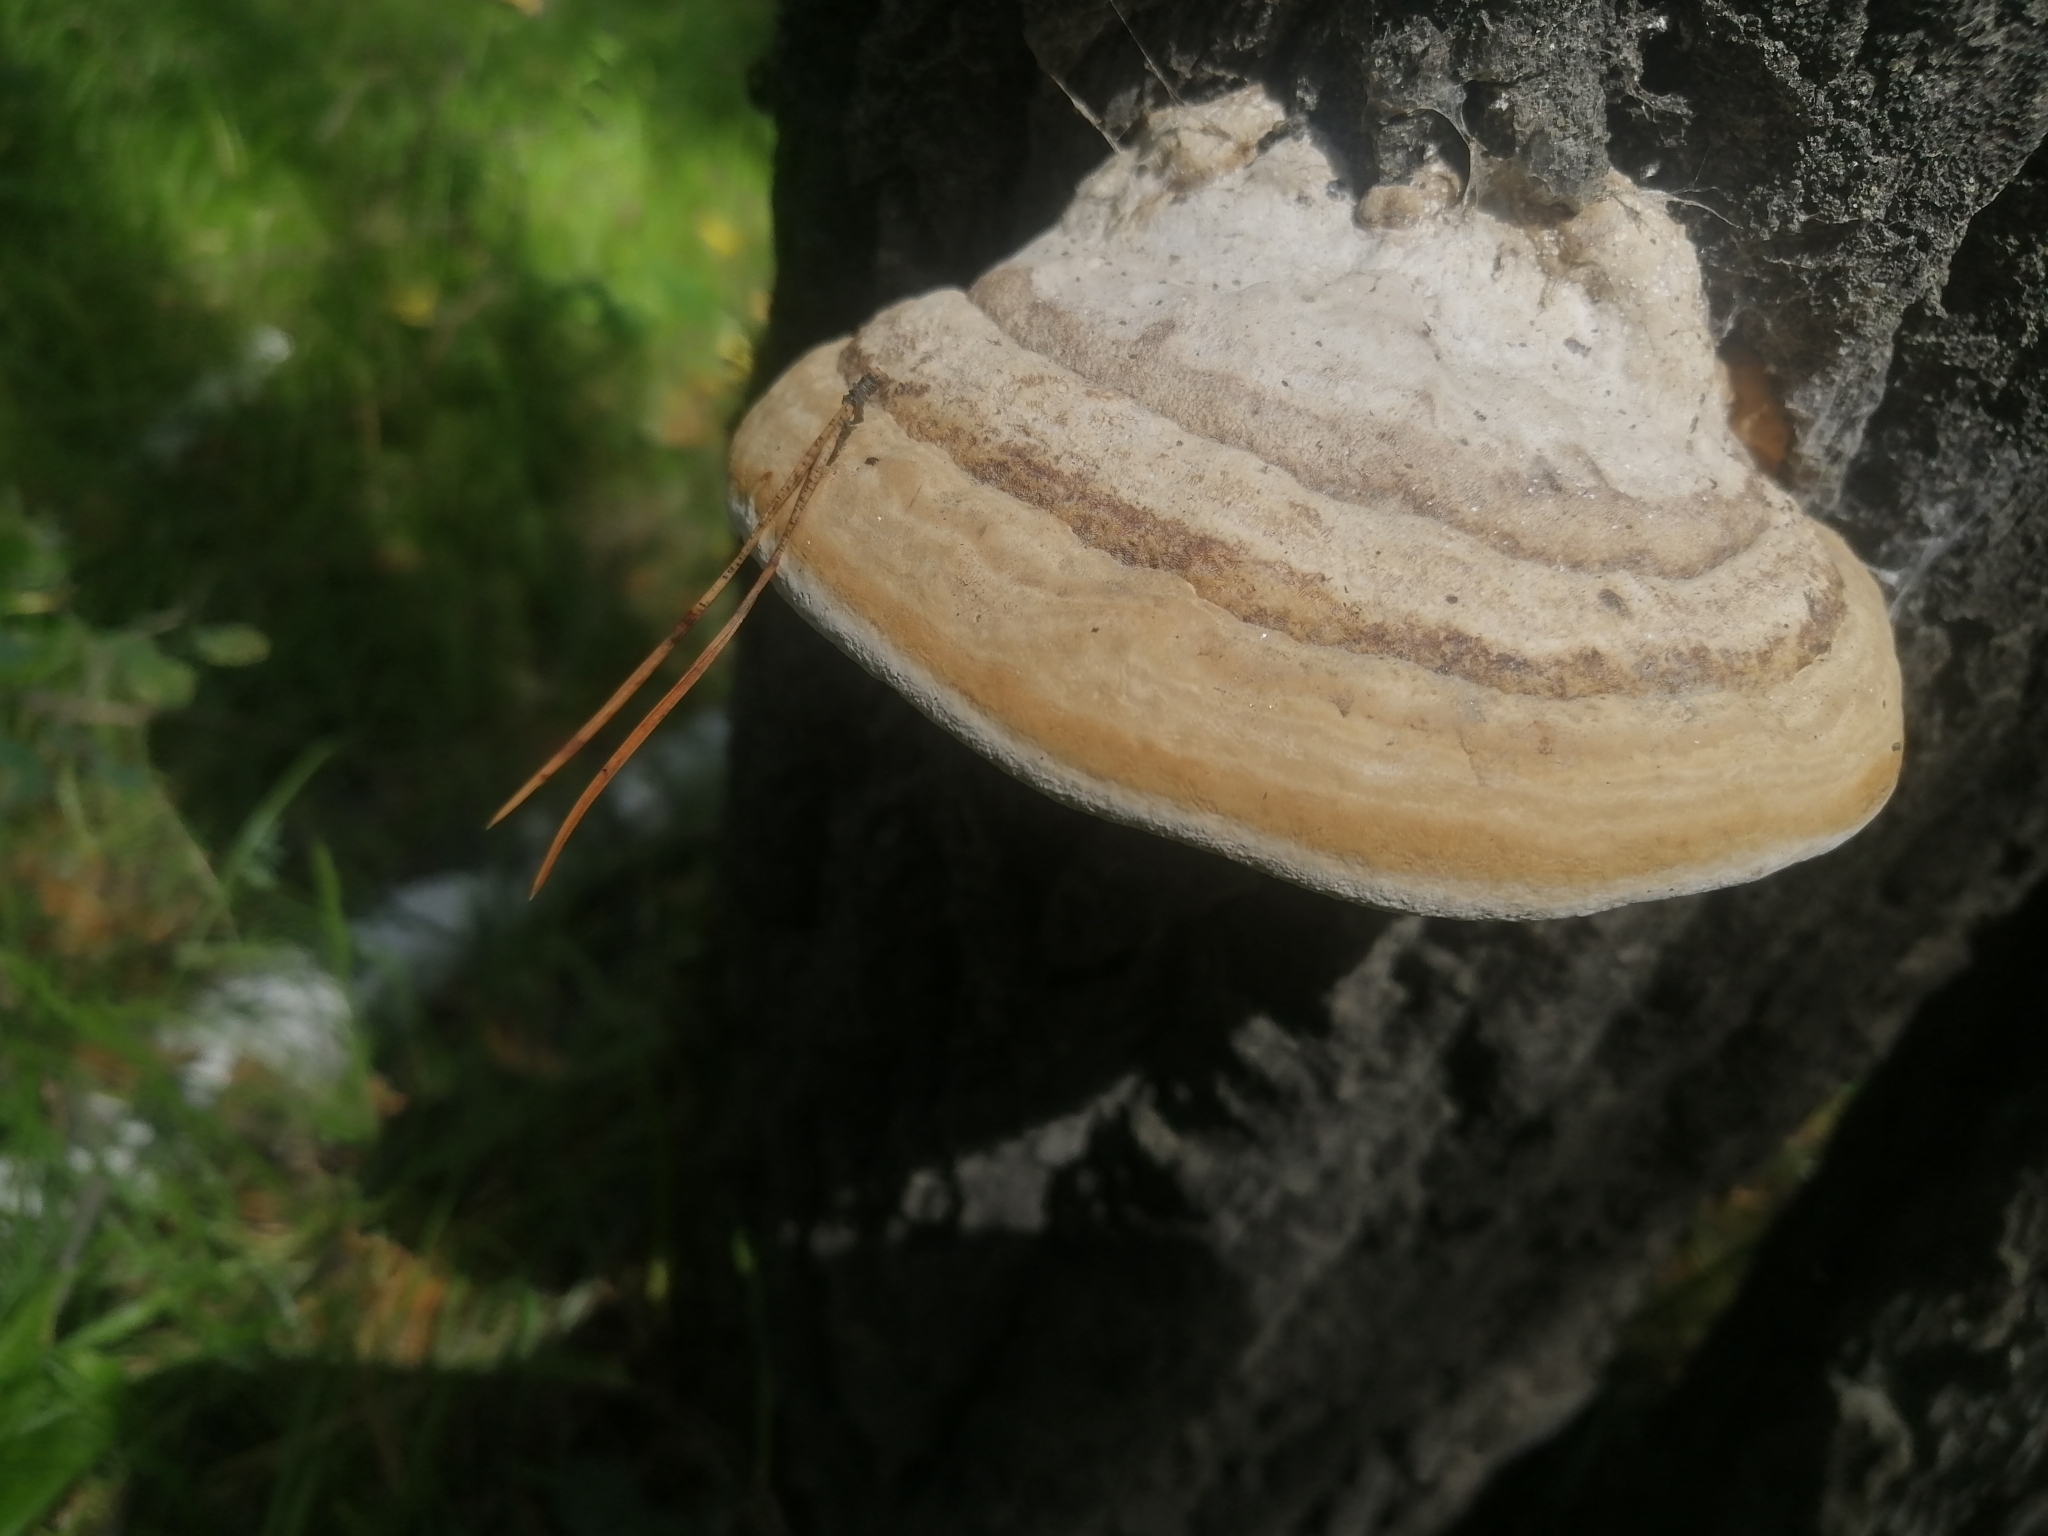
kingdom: Fungi
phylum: Basidiomycota
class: Agaricomycetes
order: Polyporales
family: Polyporaceae
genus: Fomes
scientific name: Fomes fomentarius
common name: Hoof fungus
